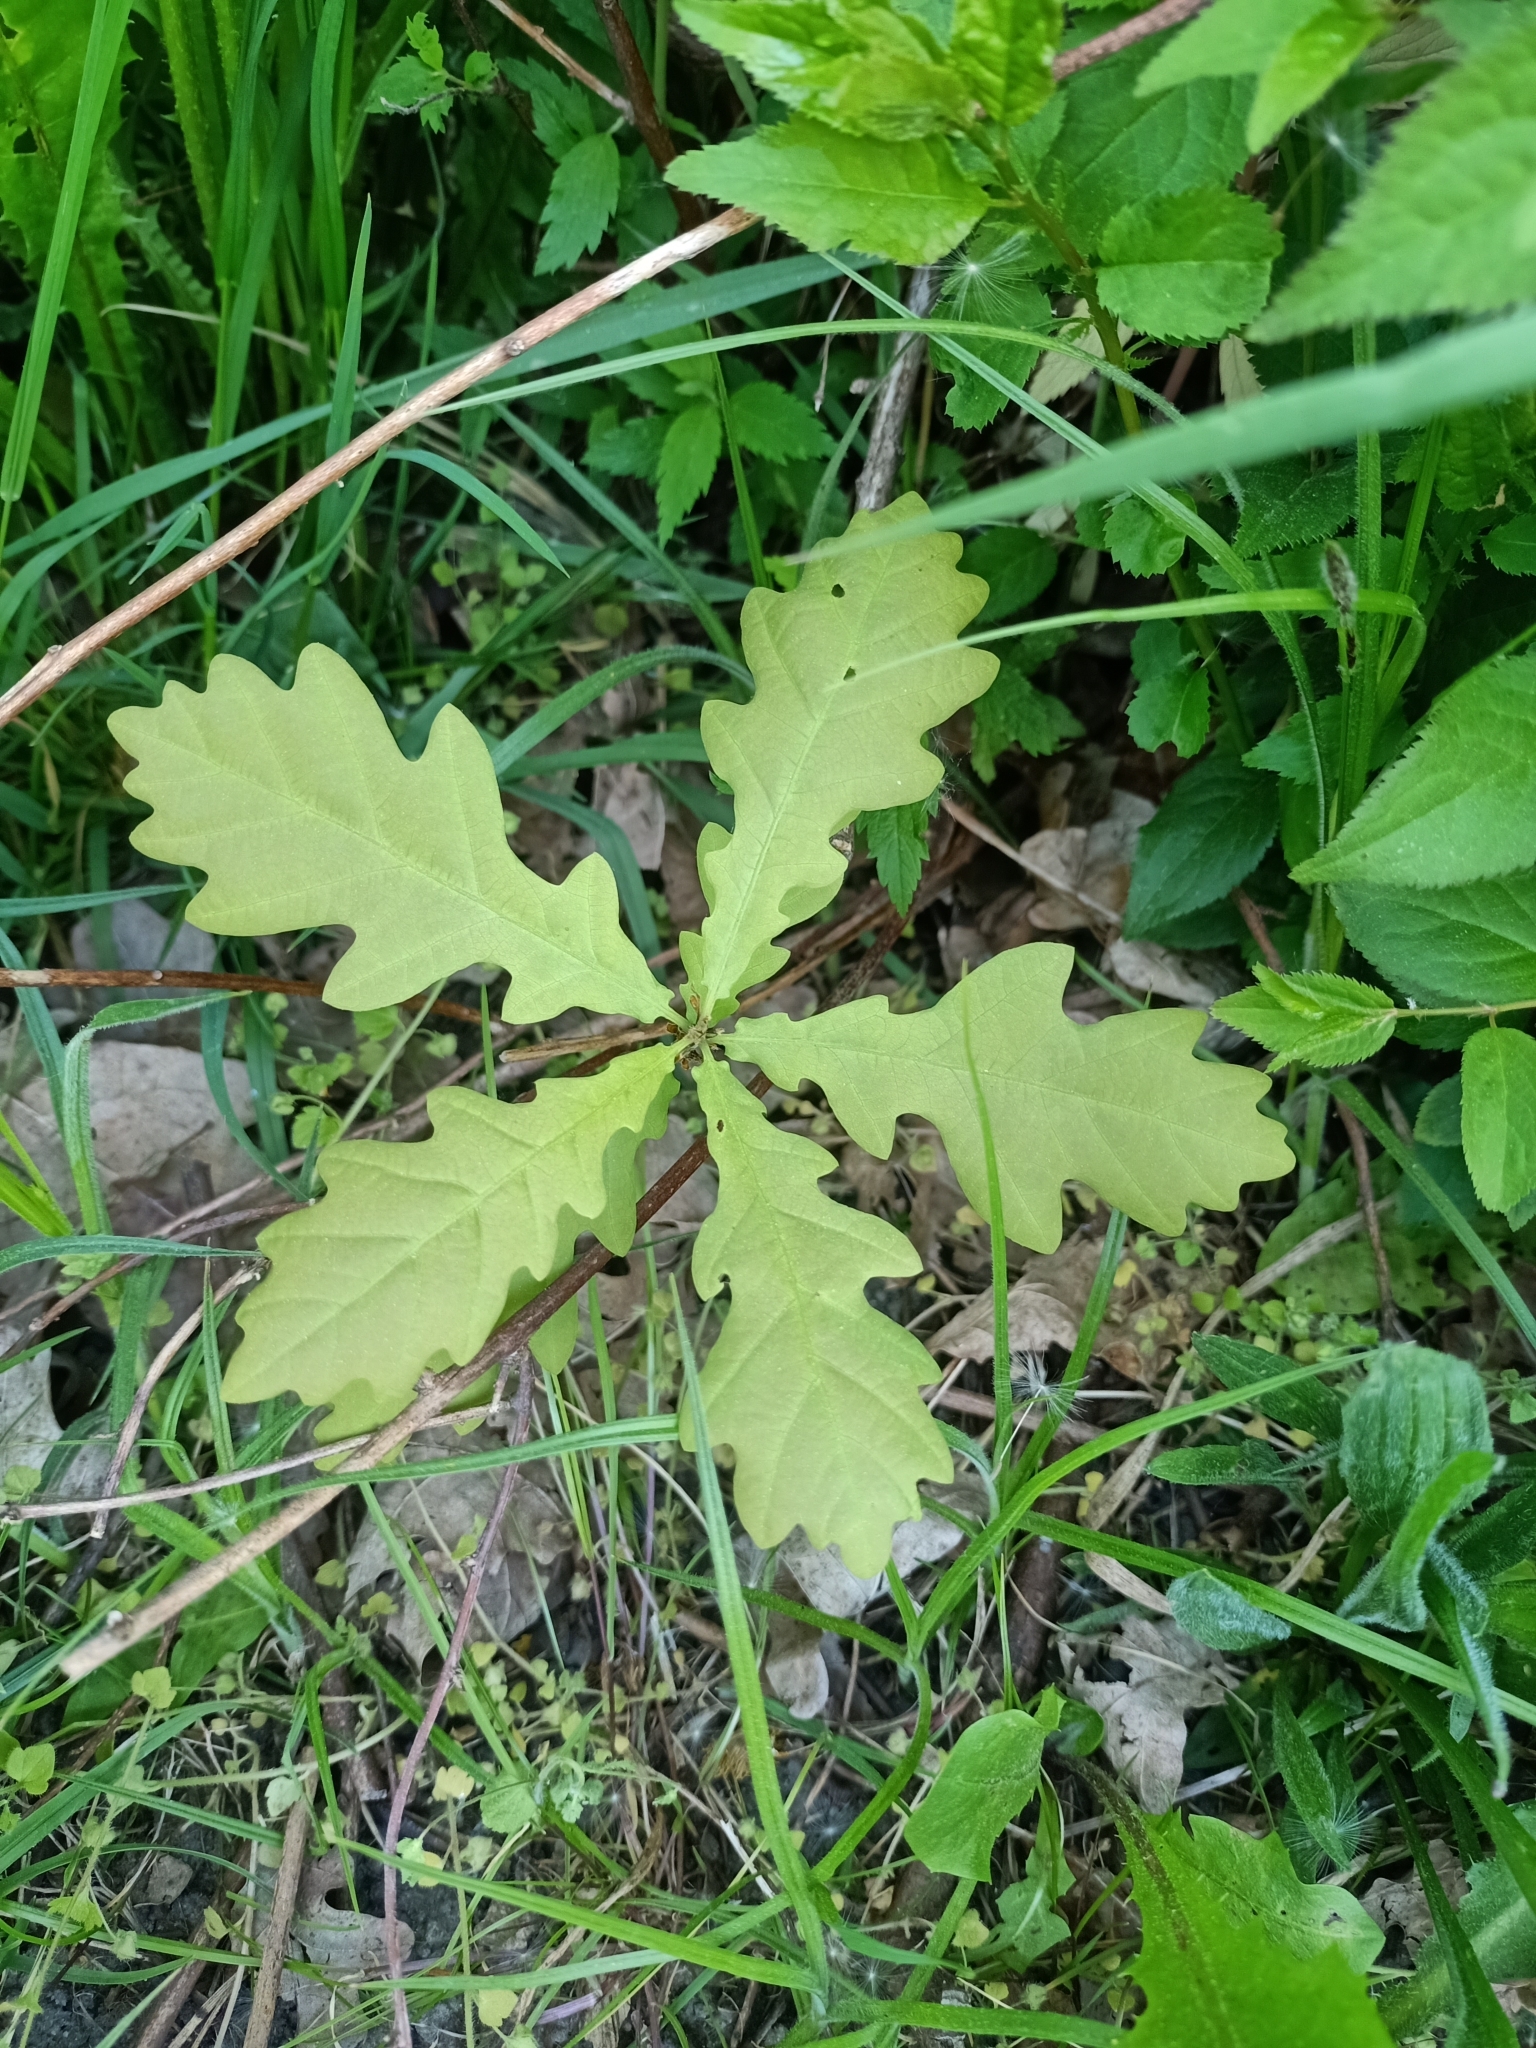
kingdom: Plantae
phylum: Tracheophyta
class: Magnoliopsida
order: Fagales
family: Fagaceae
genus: Quercus
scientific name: Quercus robur
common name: Pedunculate oak
